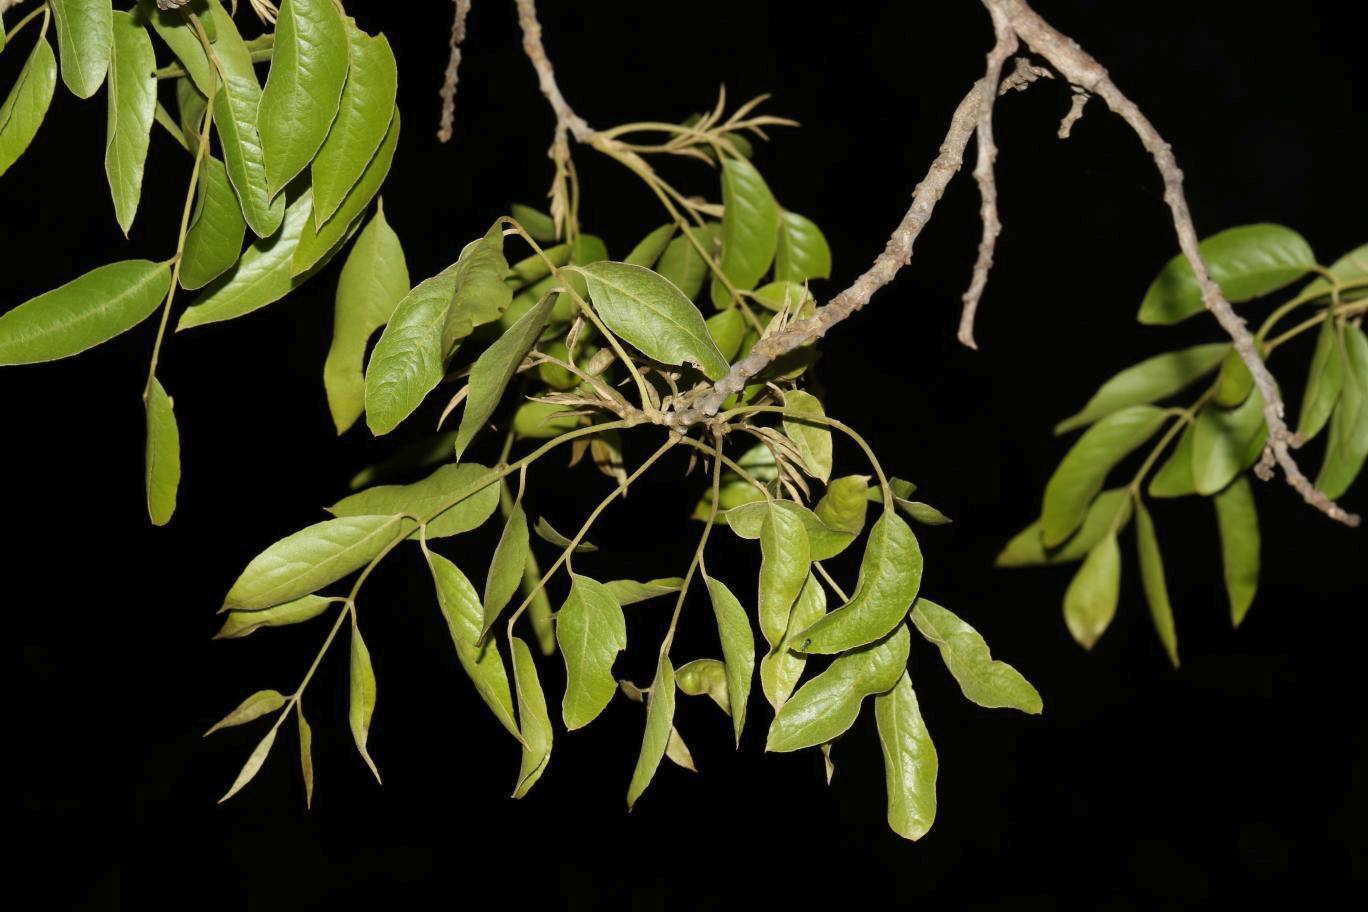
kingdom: Plantae
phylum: Tracheophyta
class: Magnoliopsida
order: Fabales
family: Fabaceae
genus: Bolusanthus
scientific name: Bolusanthus speciosus
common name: Tree wisteria
